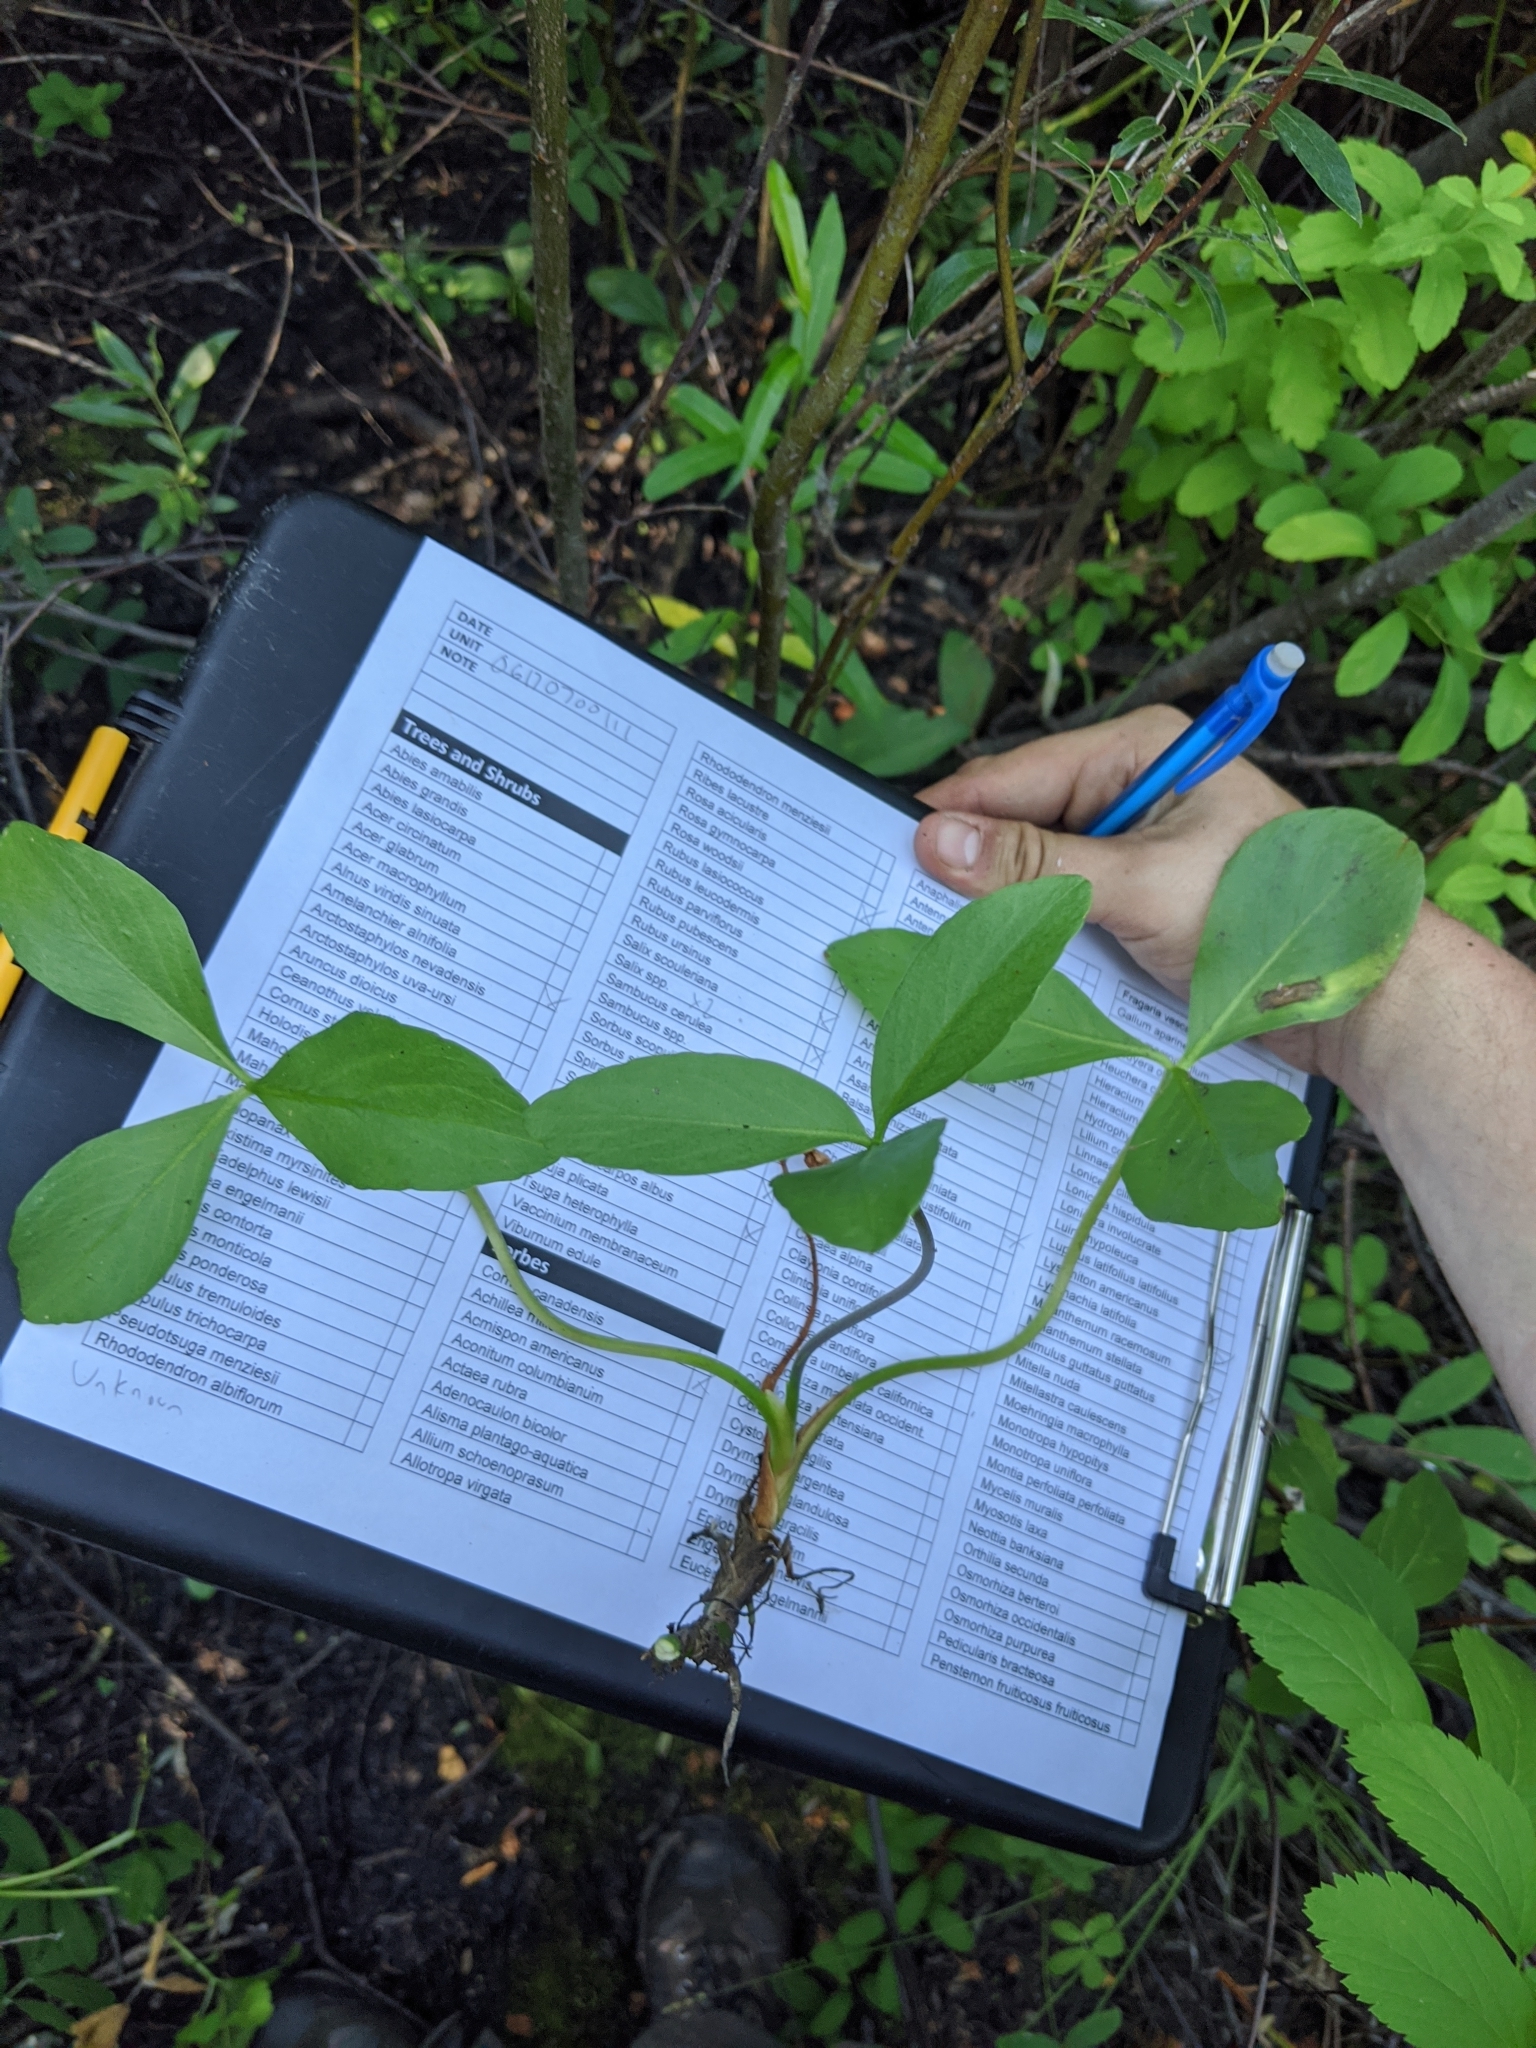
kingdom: Plantae
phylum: Tracheophyta
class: Magnoliopsida
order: Asterales
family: Menyanthaceae
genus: Menyanthes
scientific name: Menyanthes trifoliata
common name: Bogbean
